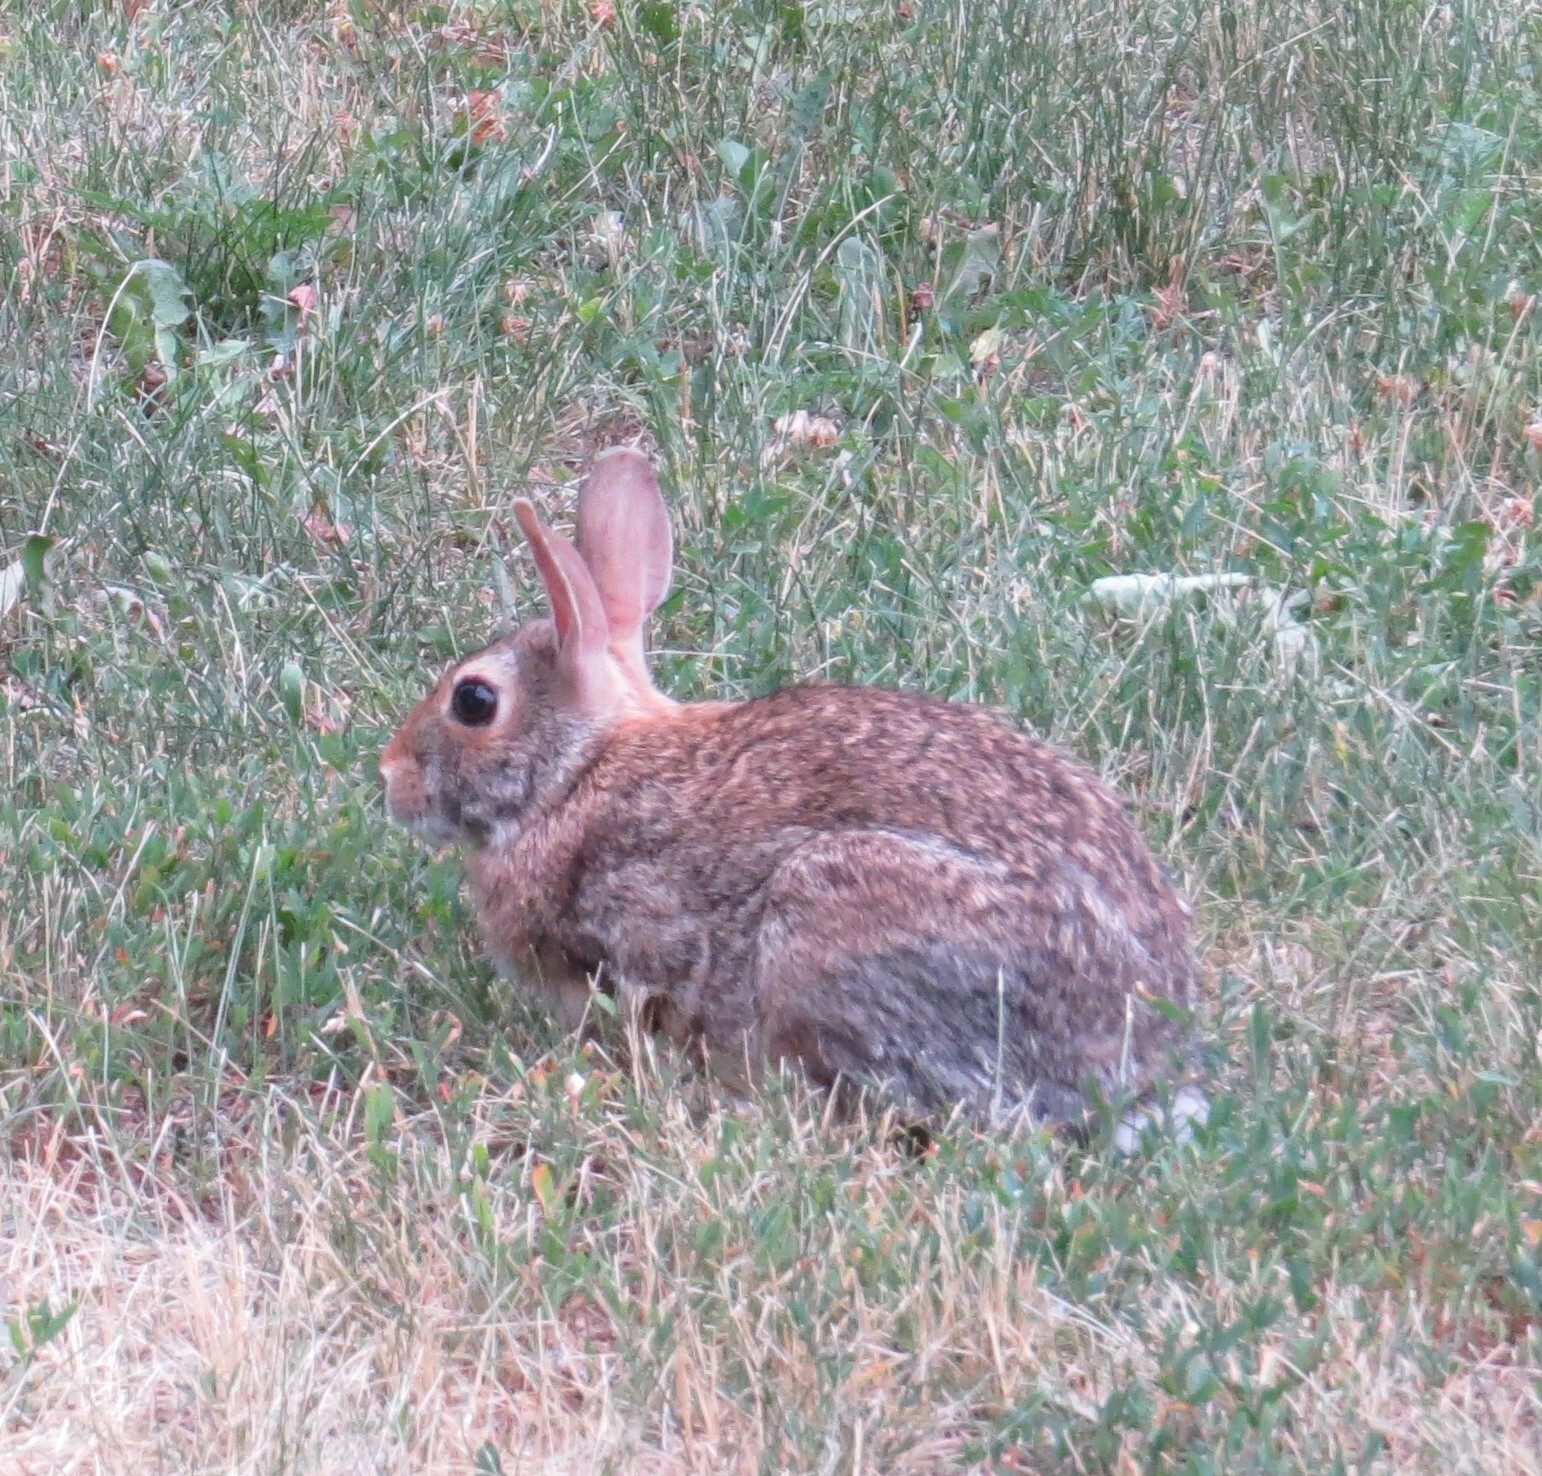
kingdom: Animalia
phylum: Chordata
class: Mammalia
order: Lagomorpha
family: Leporidae
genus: Sylvilagus
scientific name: Sylvilagus floridanus
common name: Eastern cottontail
